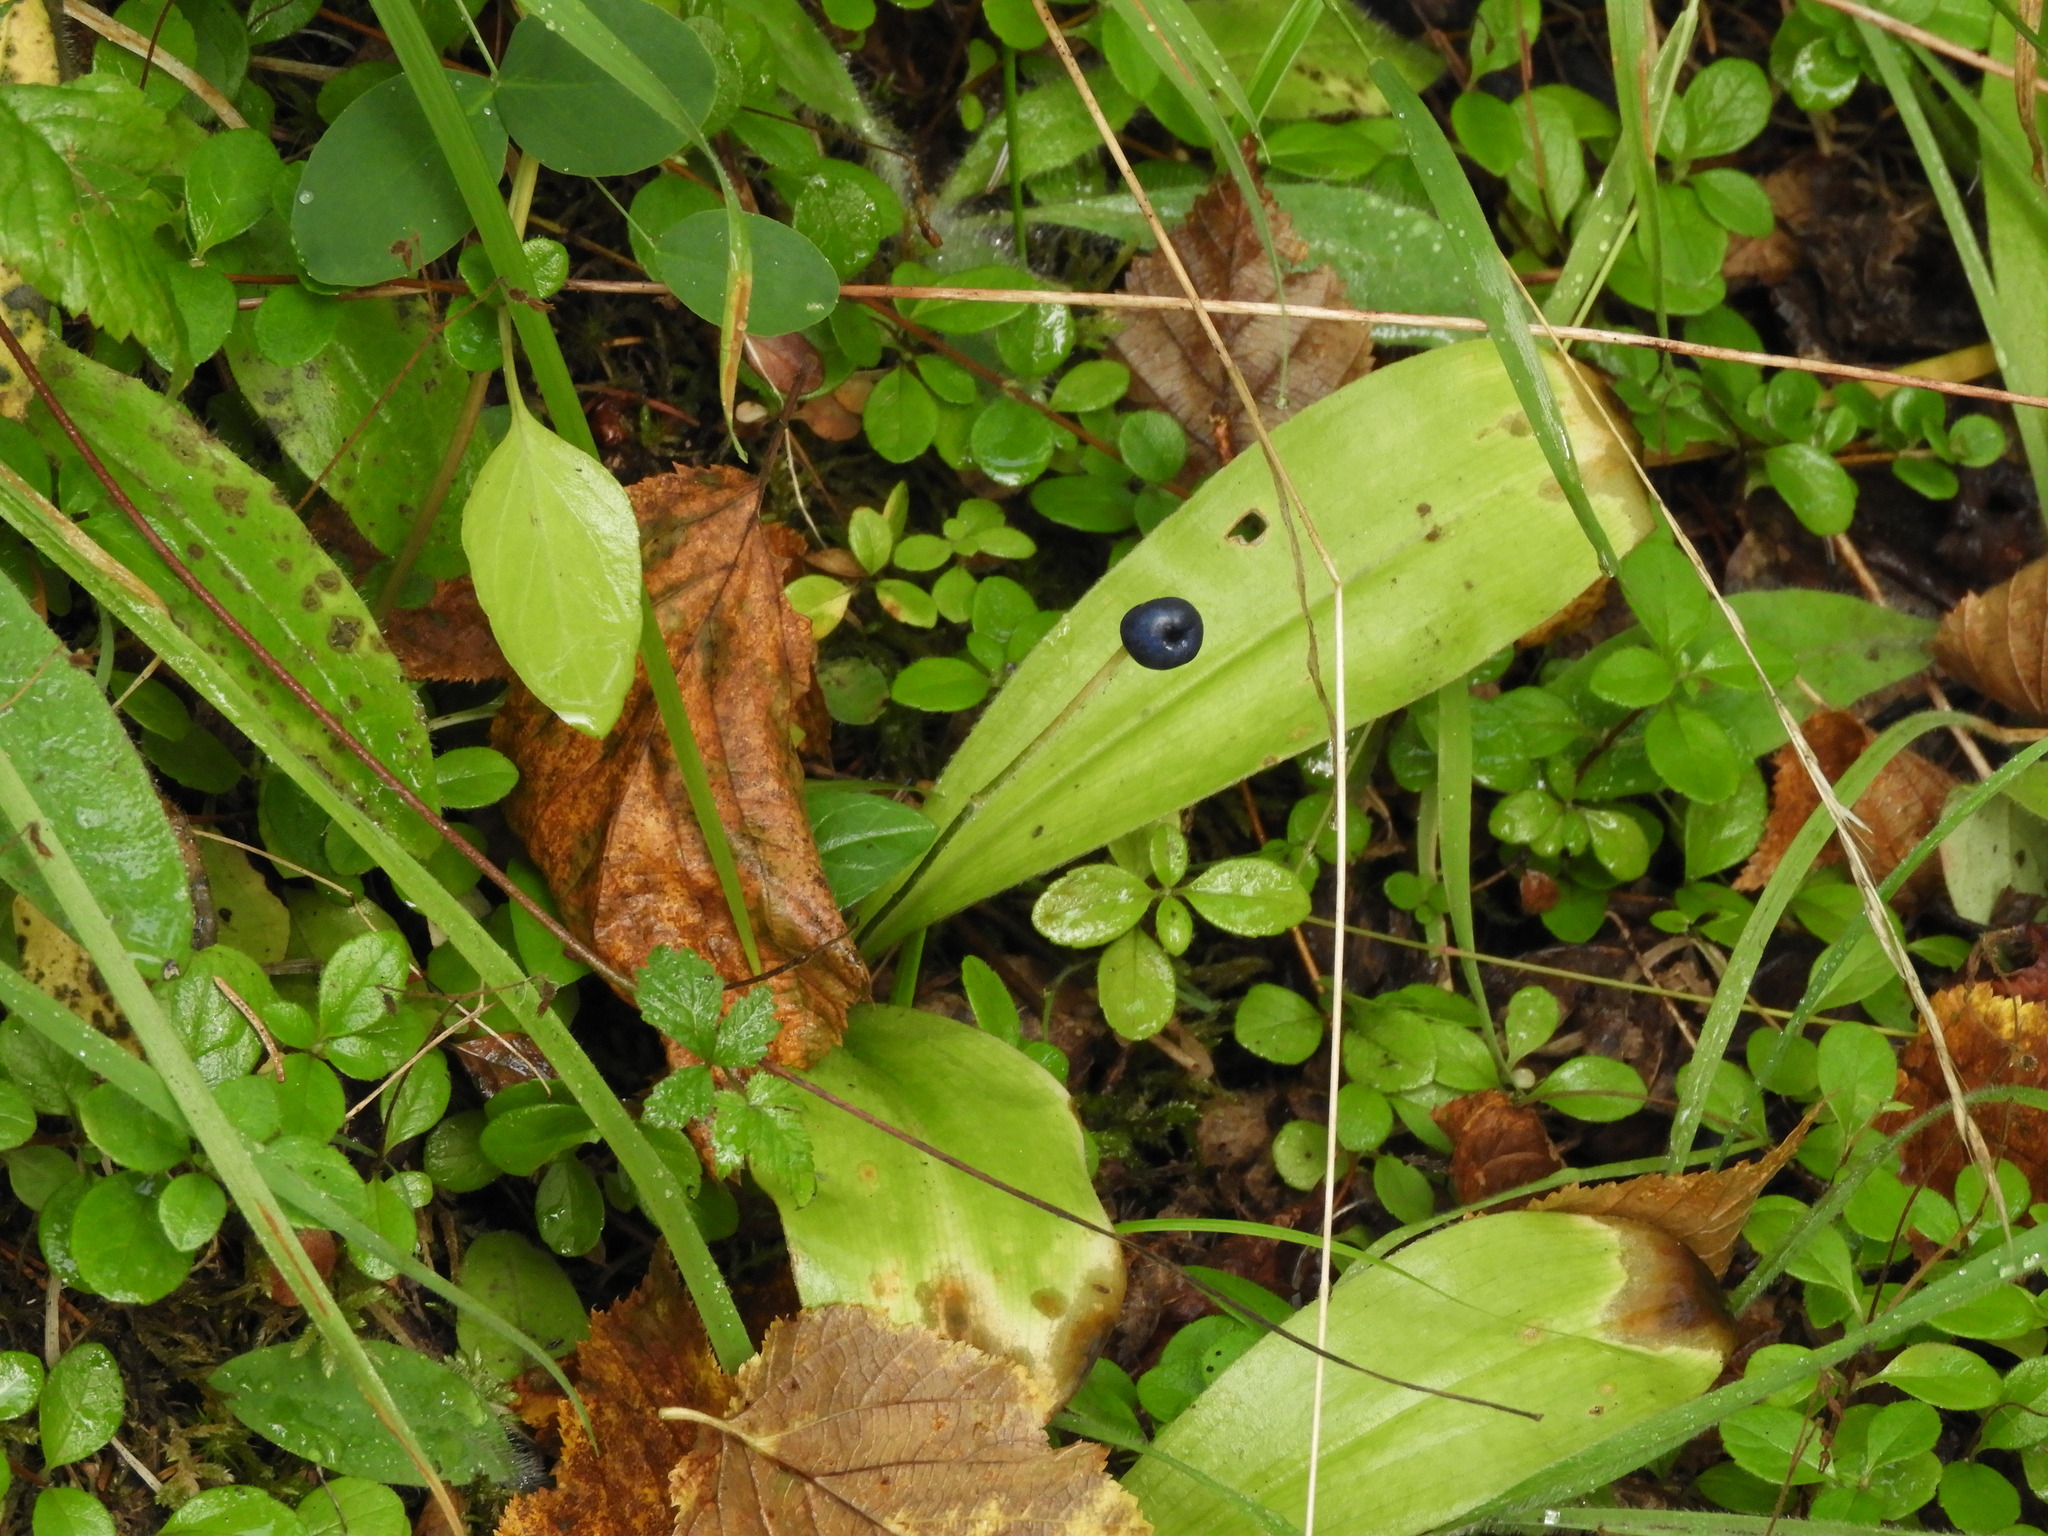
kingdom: Plantae
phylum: Tracheophyta
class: Liliopsida
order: Liliales
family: Liliaceae
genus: Clintonia
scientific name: Clintonia uniflora
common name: Queen's cup
